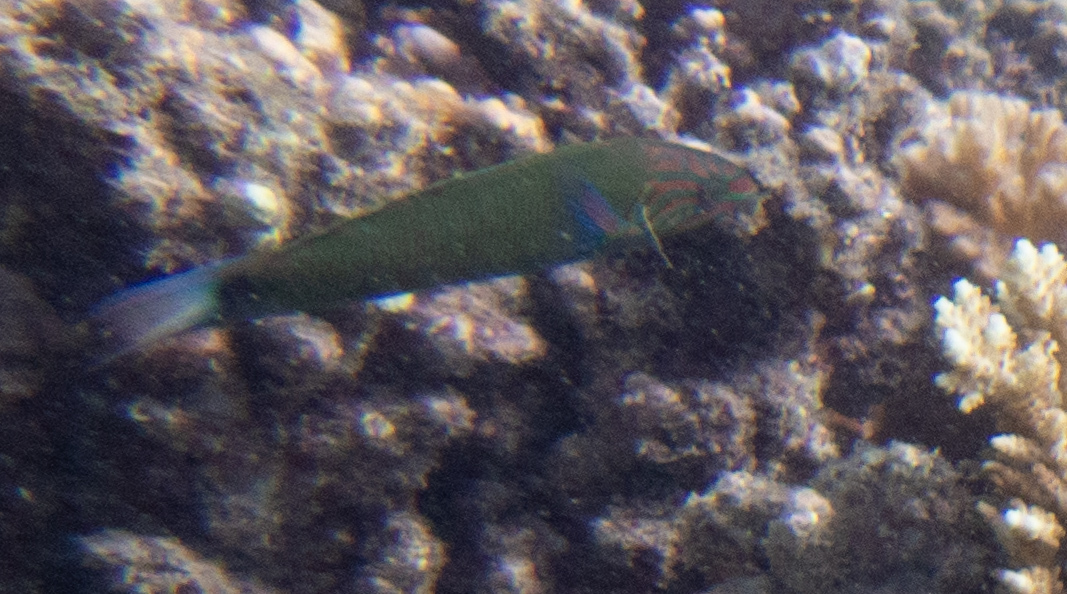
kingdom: Animalia
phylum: Chordata
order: Perciformes
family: Labridae
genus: Thalassoma
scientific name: Thalassoma lunare
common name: Blue wrasse
